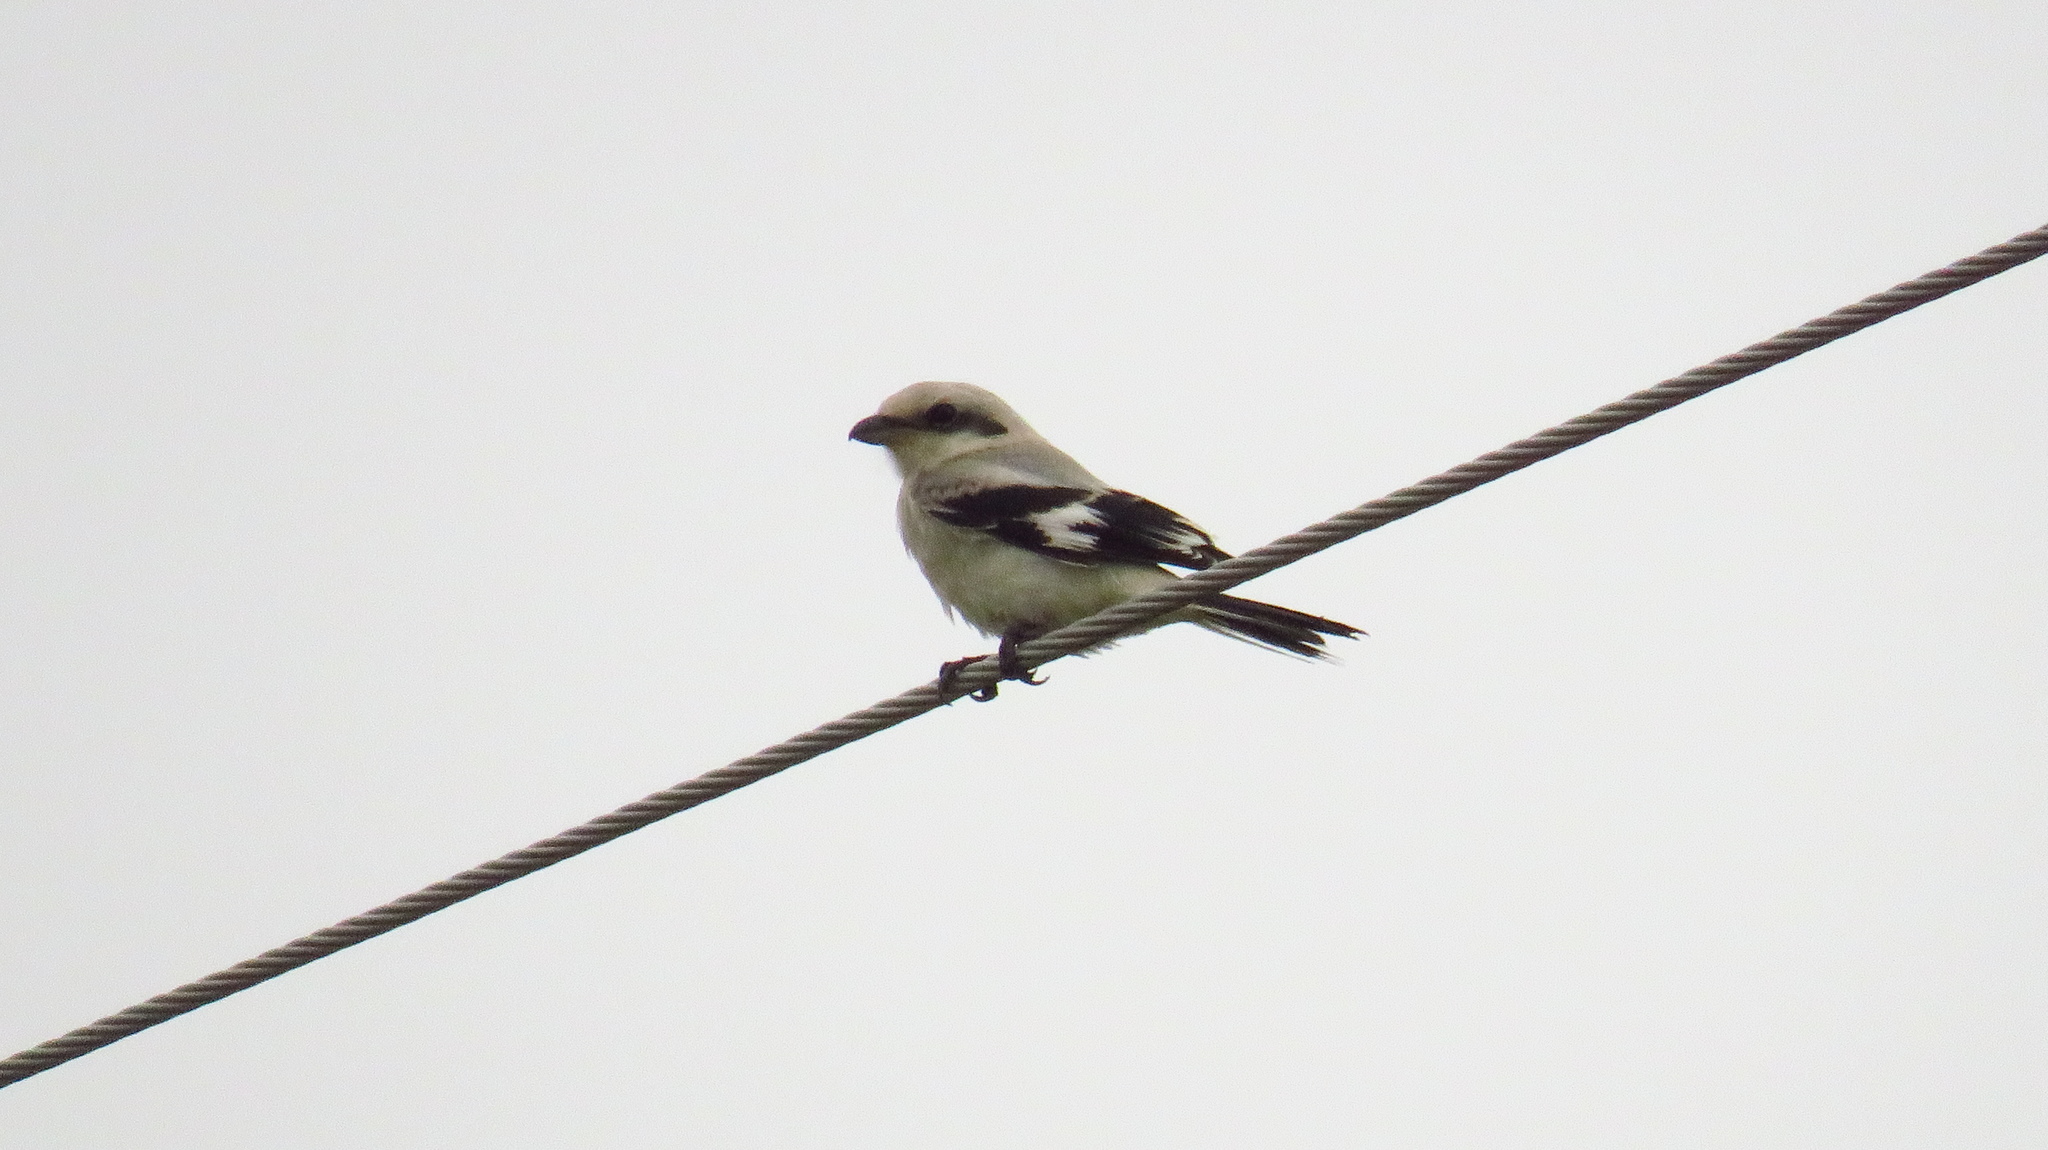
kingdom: Animalia
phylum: Chordata
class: Aves
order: Passeriformes
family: Laniidae
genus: Lanius
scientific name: Lanius excubitor
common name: Great grey shrike
